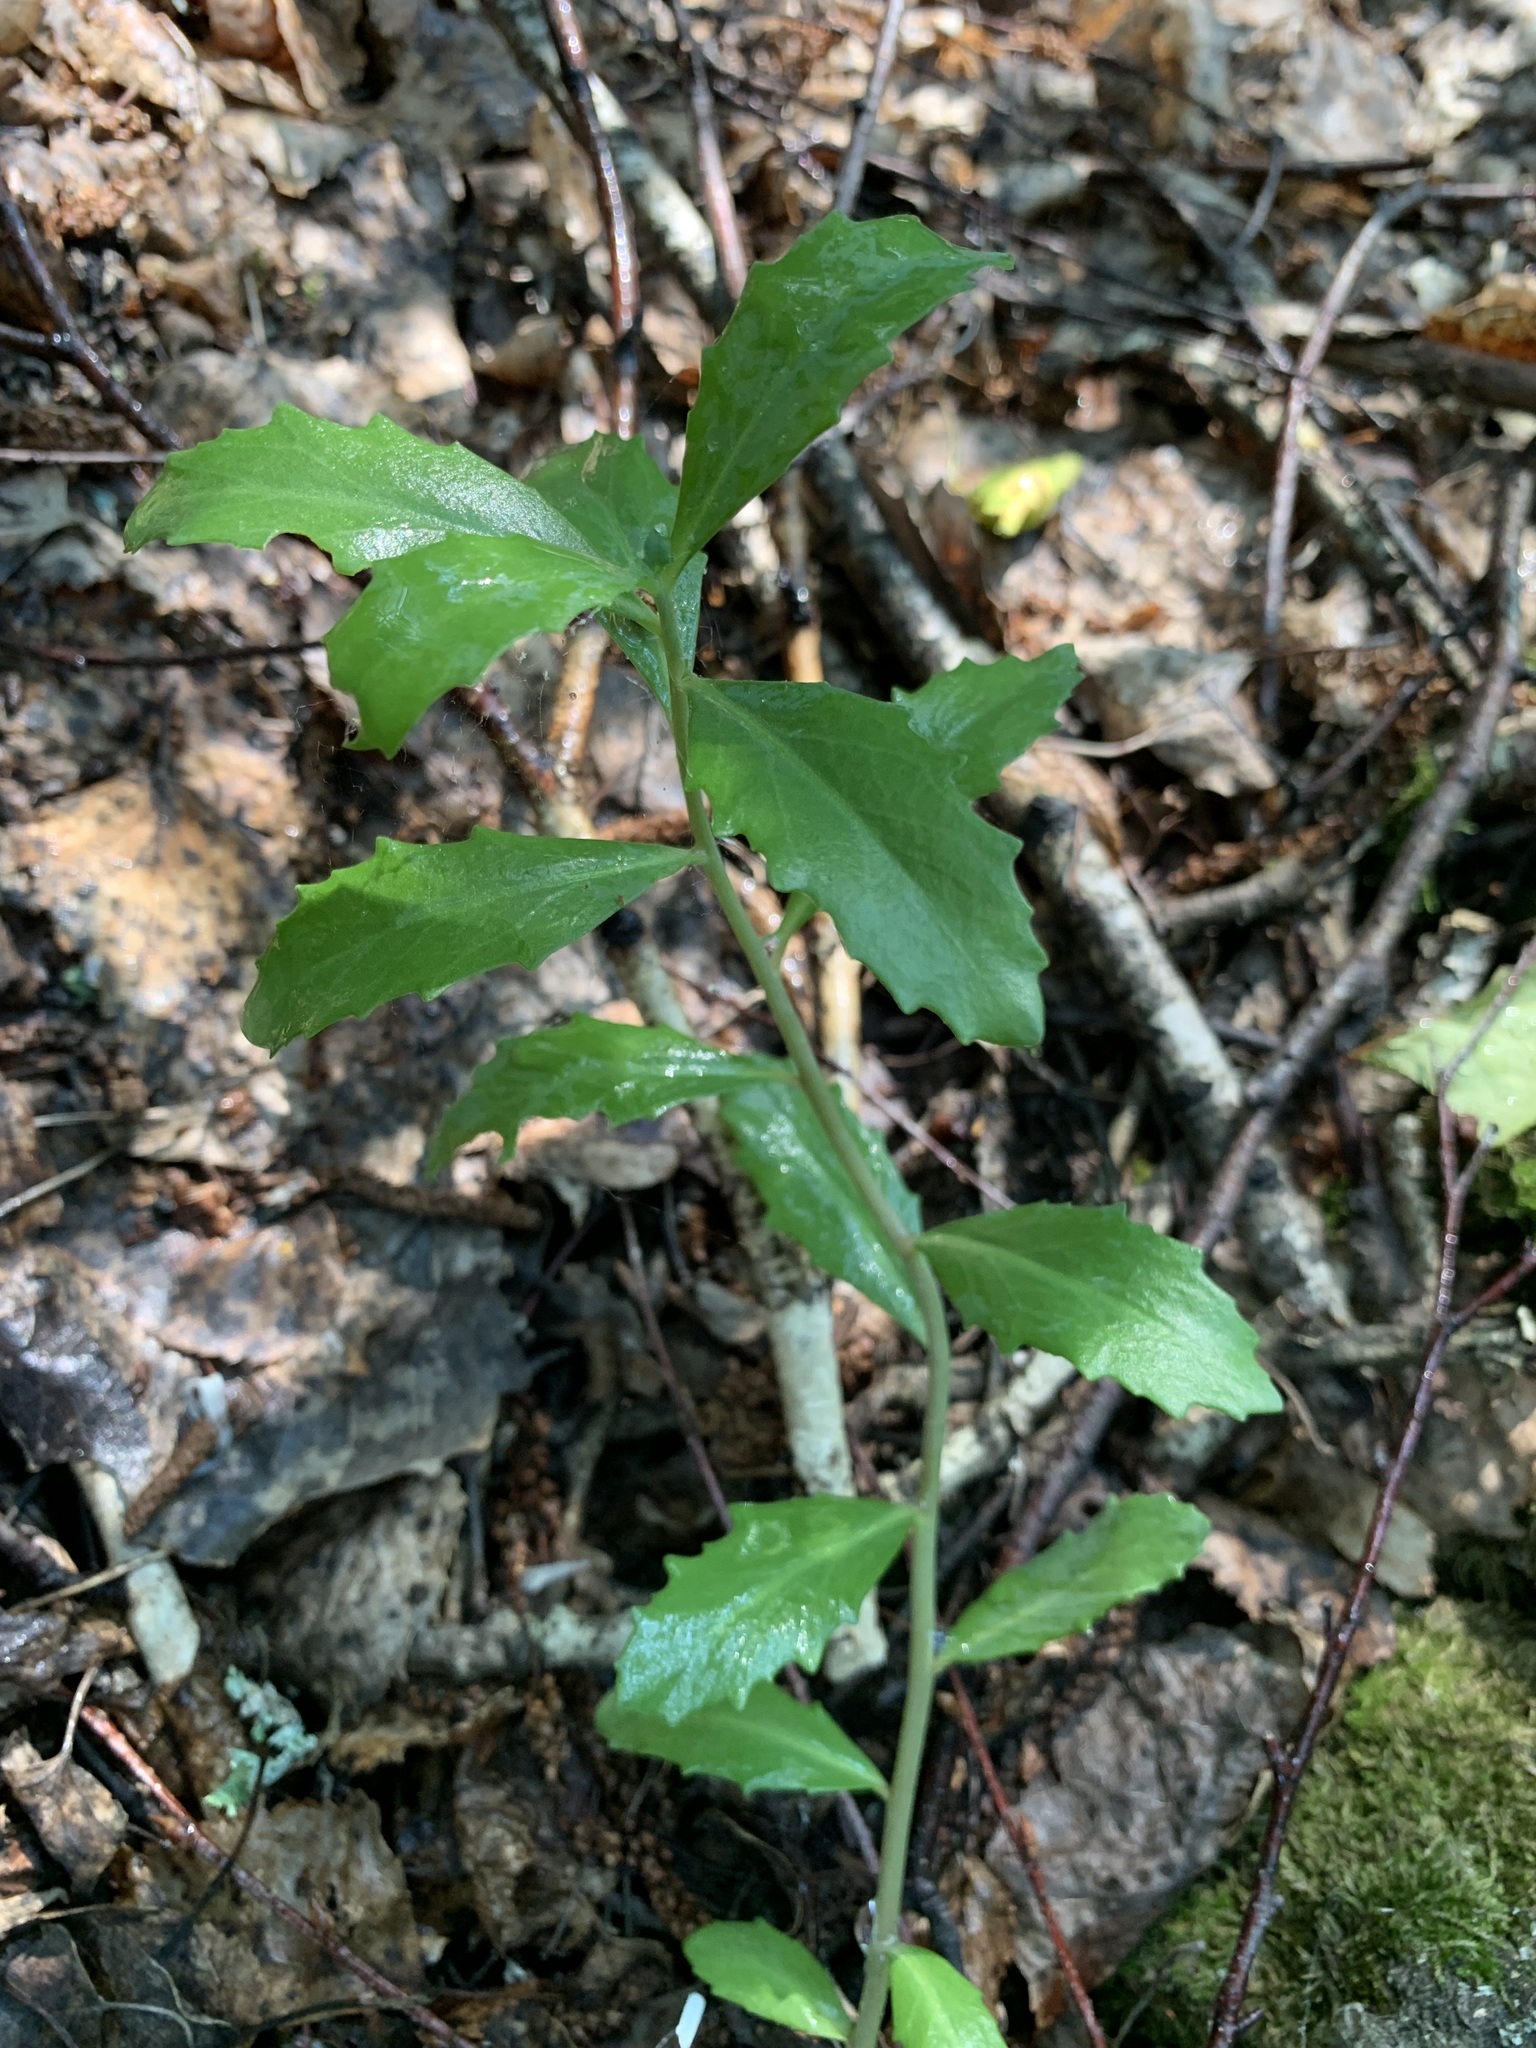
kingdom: Plantae
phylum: Tracheophyta
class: Magnoliopsida
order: Saxifragales
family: Crassulaceae
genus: Hylotelephium
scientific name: Hylotelephium telephium
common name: Live-forever
